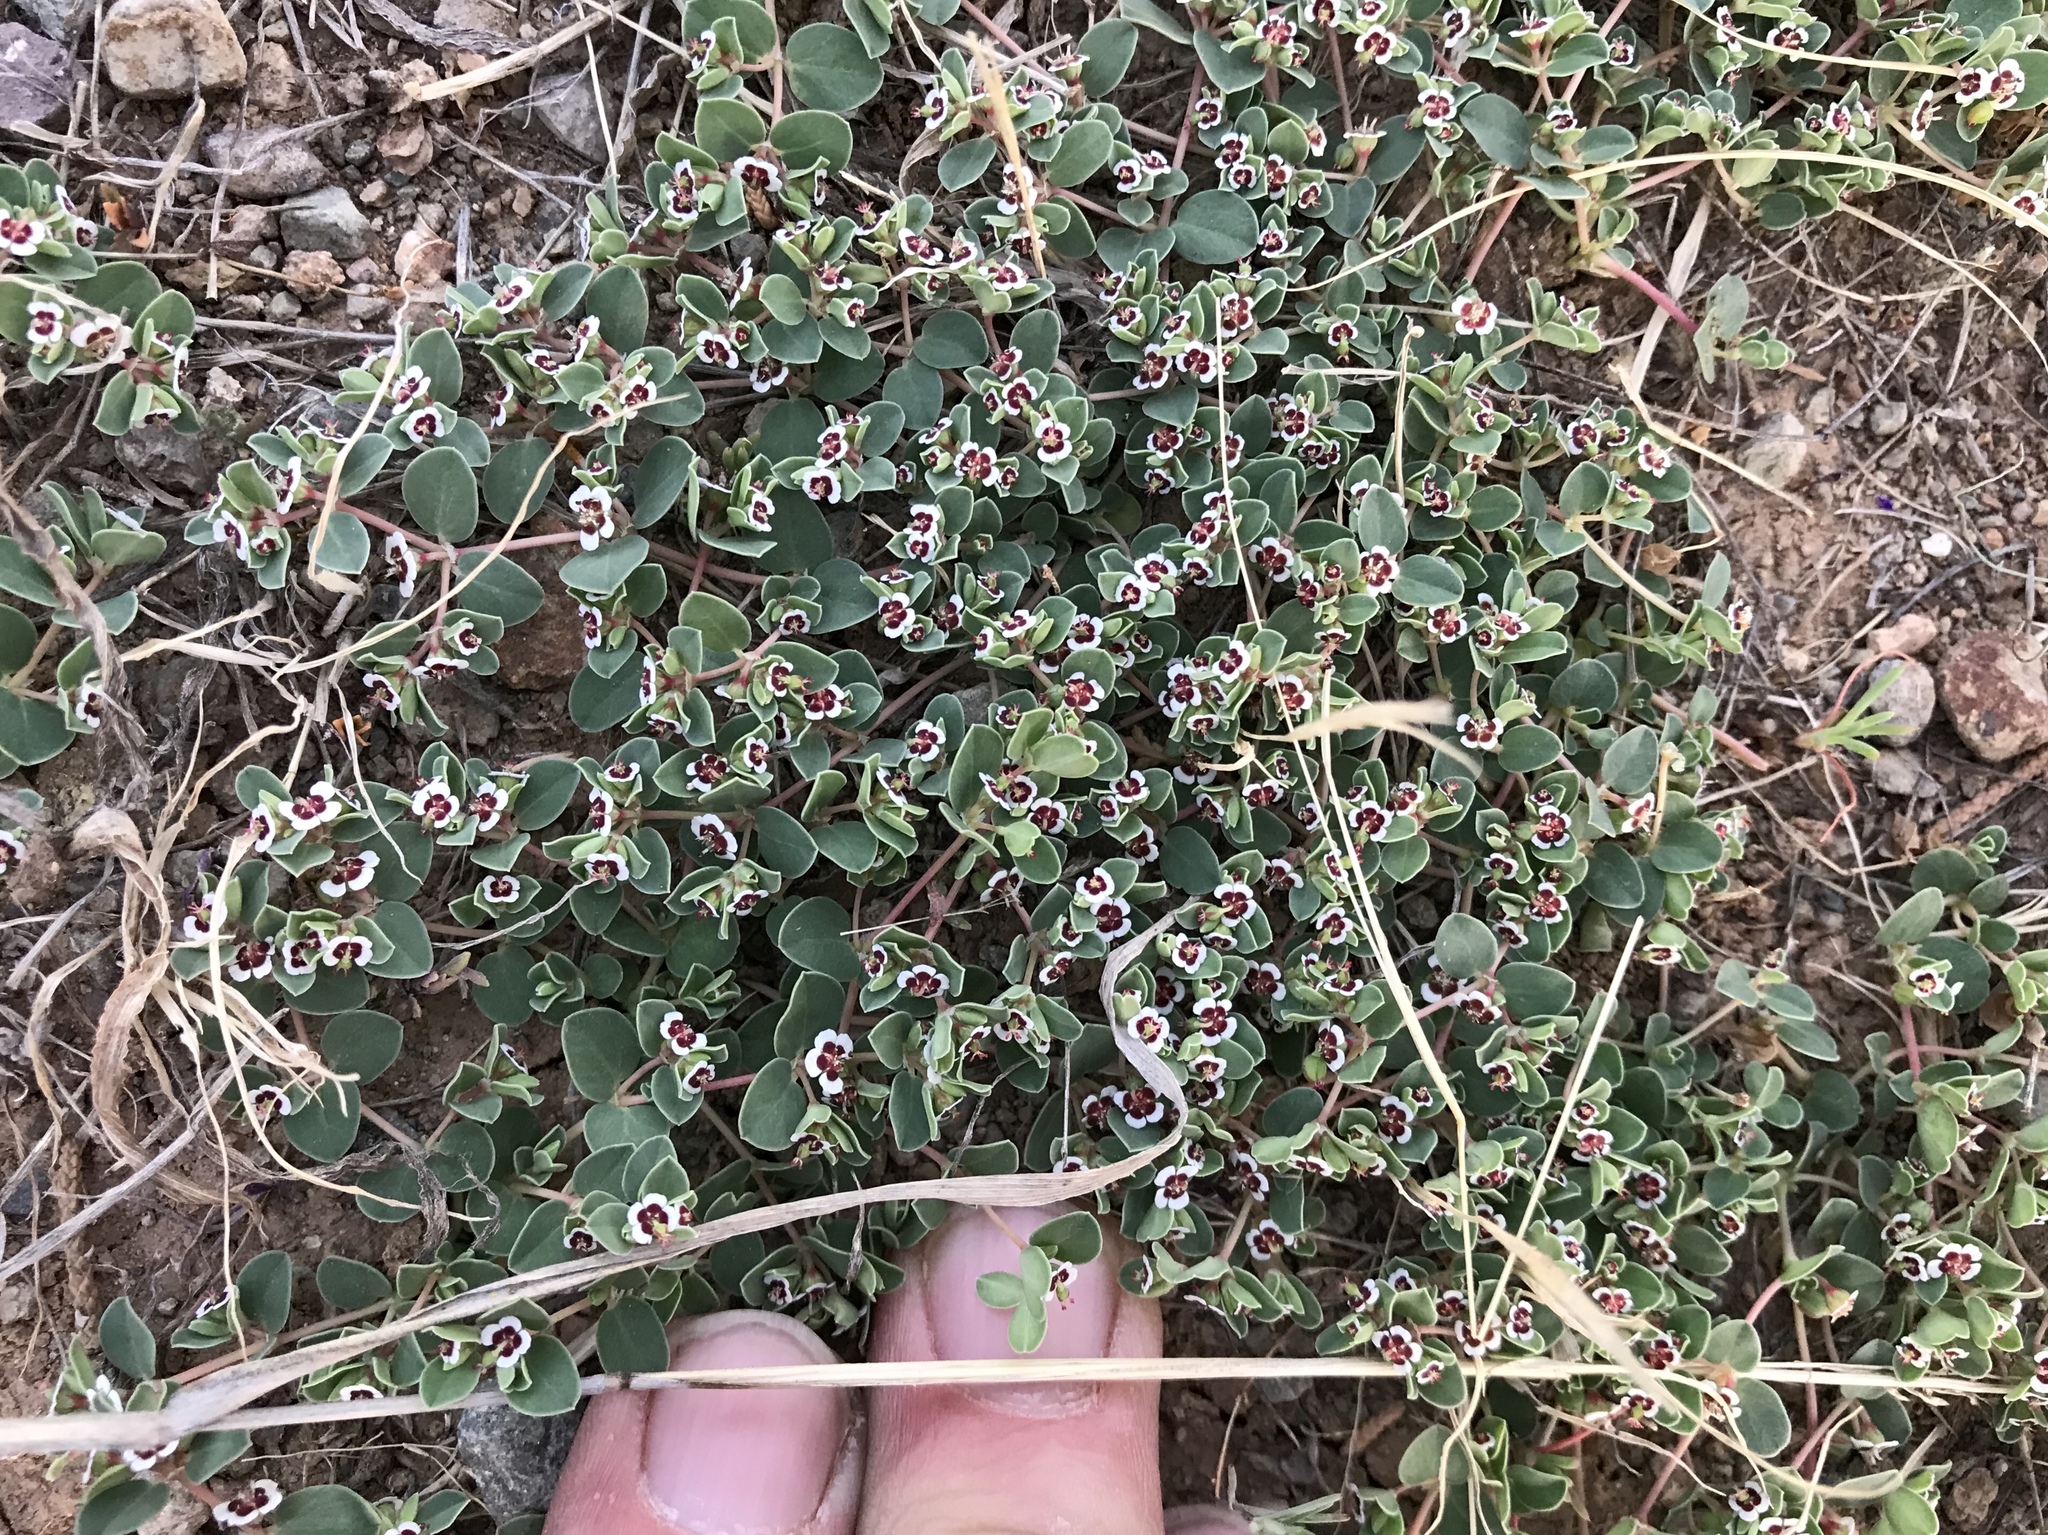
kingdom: Plantae
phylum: Tracheophyta
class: Magnoliopsida
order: Malpighiales
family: Euphorbiaceae
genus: Euphorbia
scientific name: Euphorbia albomarginata
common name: Whitemargin sandmat
